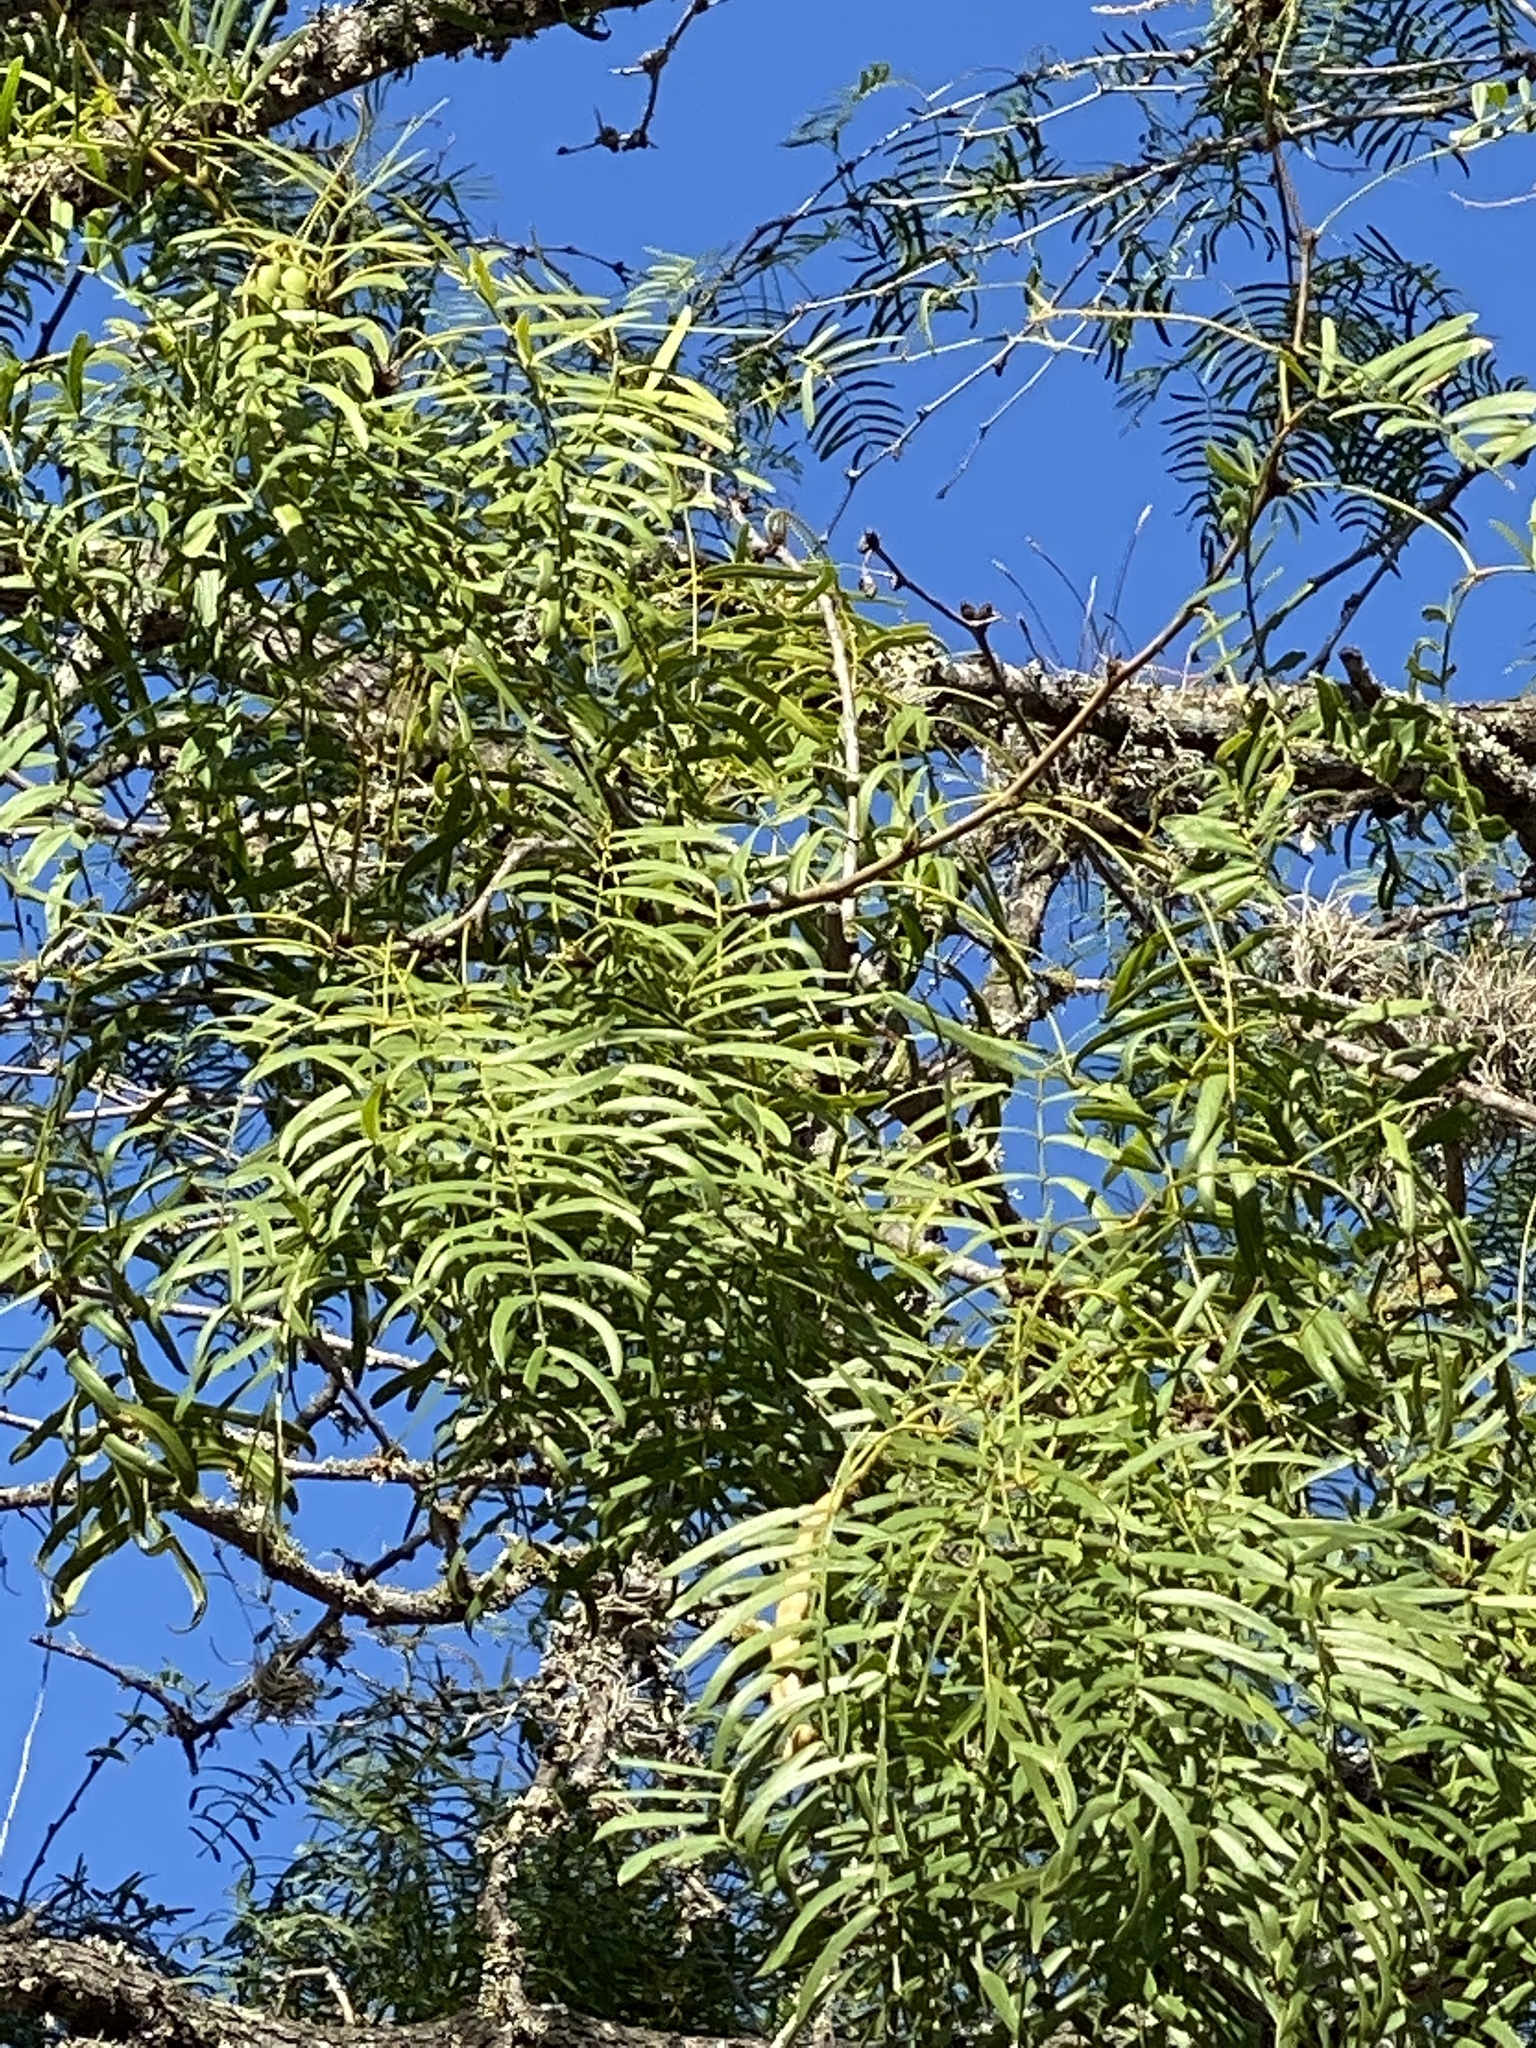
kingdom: Plantae
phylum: Tracheophyta
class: Magnoliopsida
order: Fabales
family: Fabaceae
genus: Prosopis
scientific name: Prosopis glandulosa
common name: Honey mesquite
